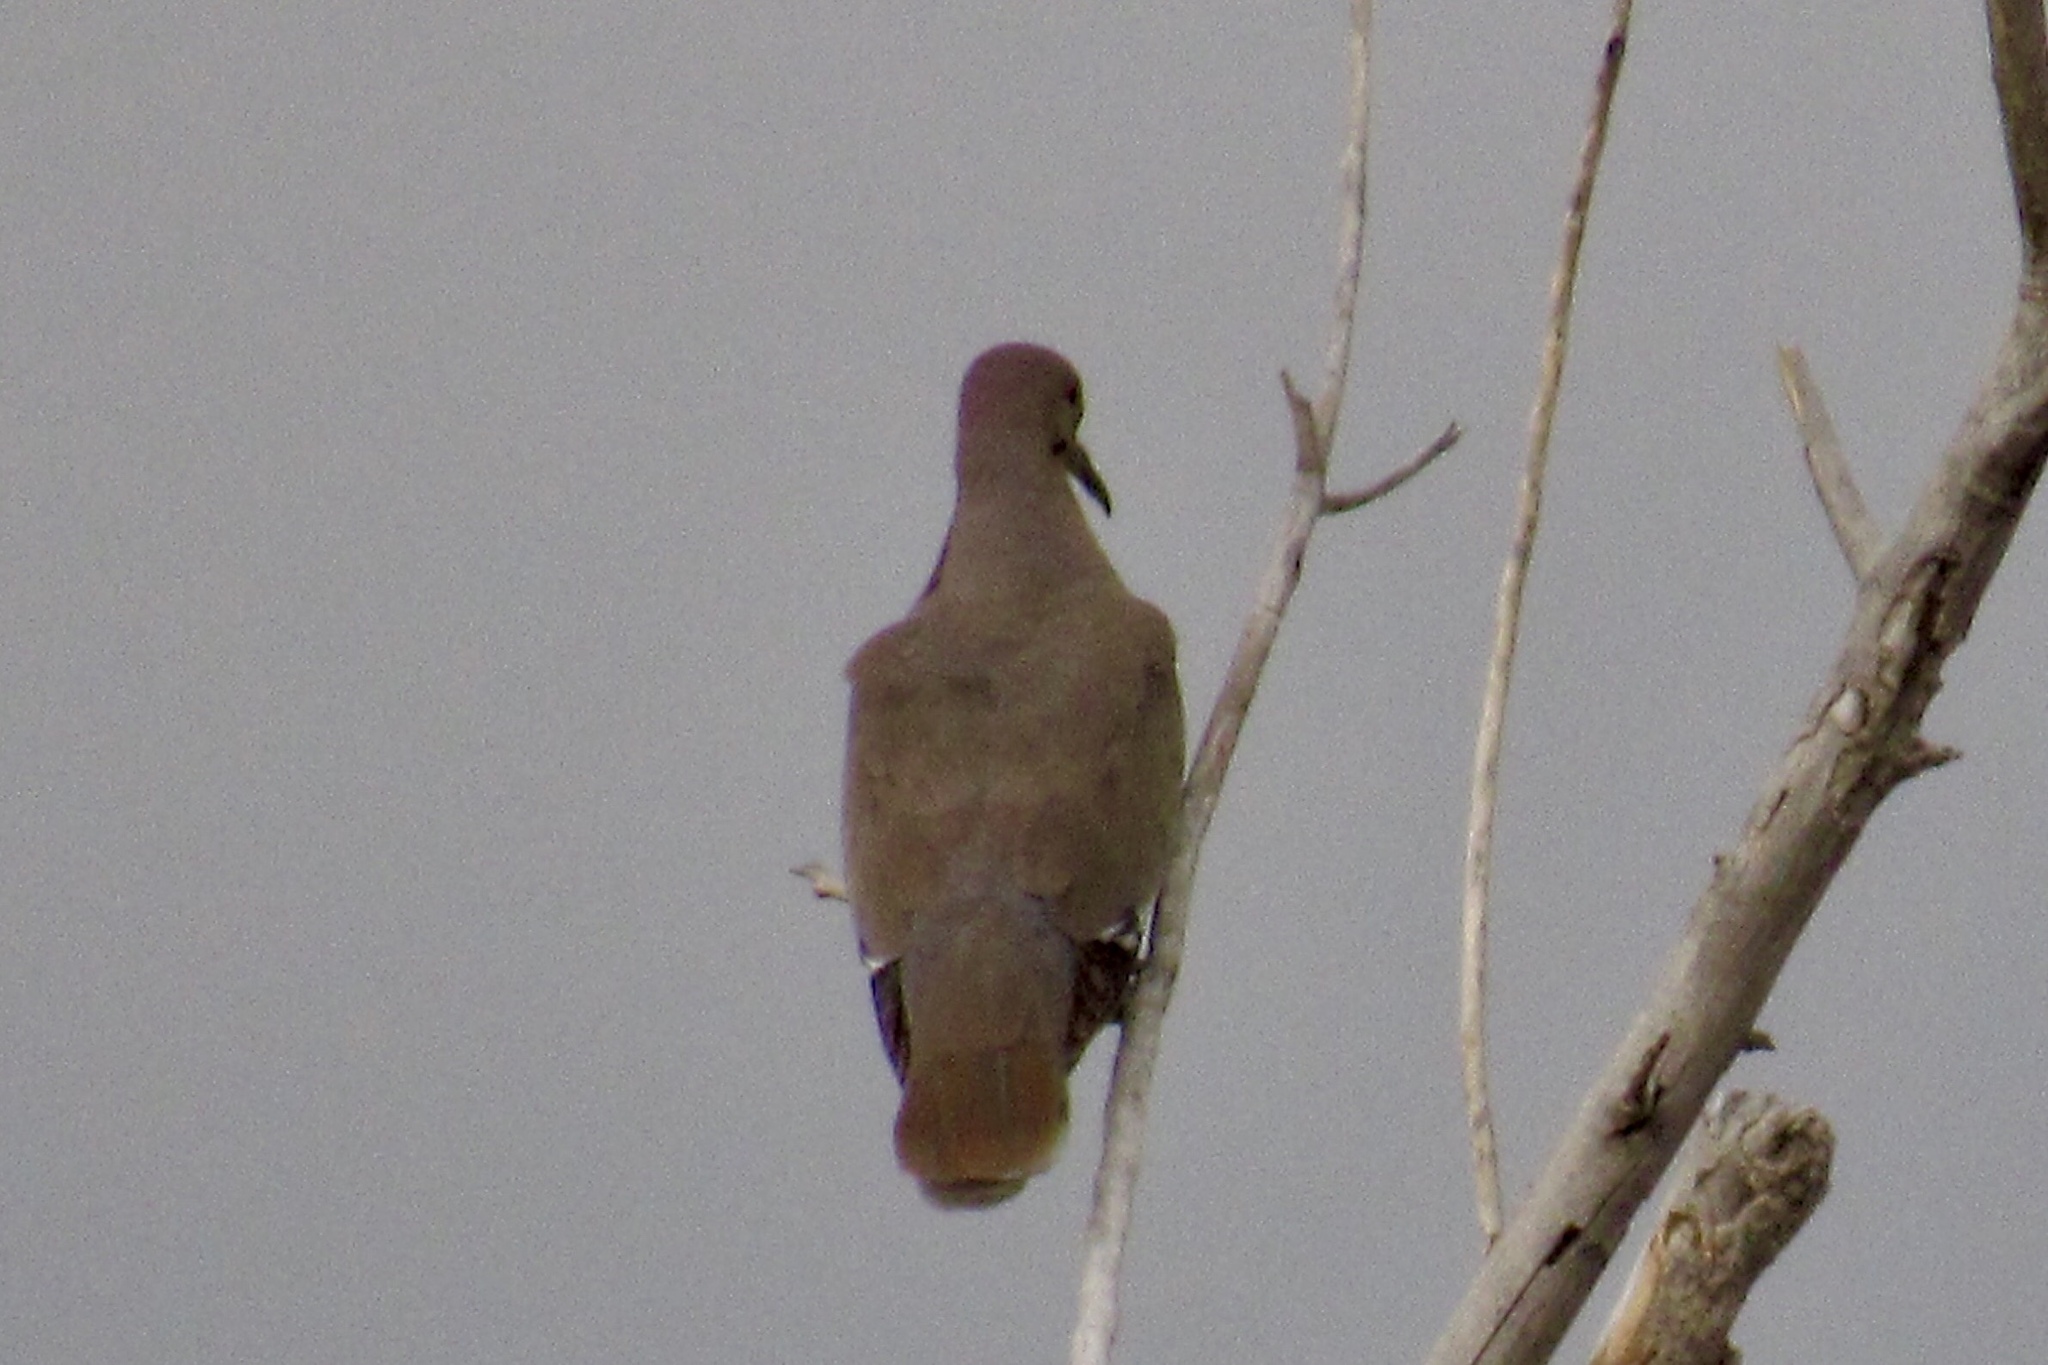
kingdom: Animalia
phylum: Chordata
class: Aves
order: Columbiformes
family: Columbidae
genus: Zenaida
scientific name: Zenaida asiatica
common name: White-winged dove
